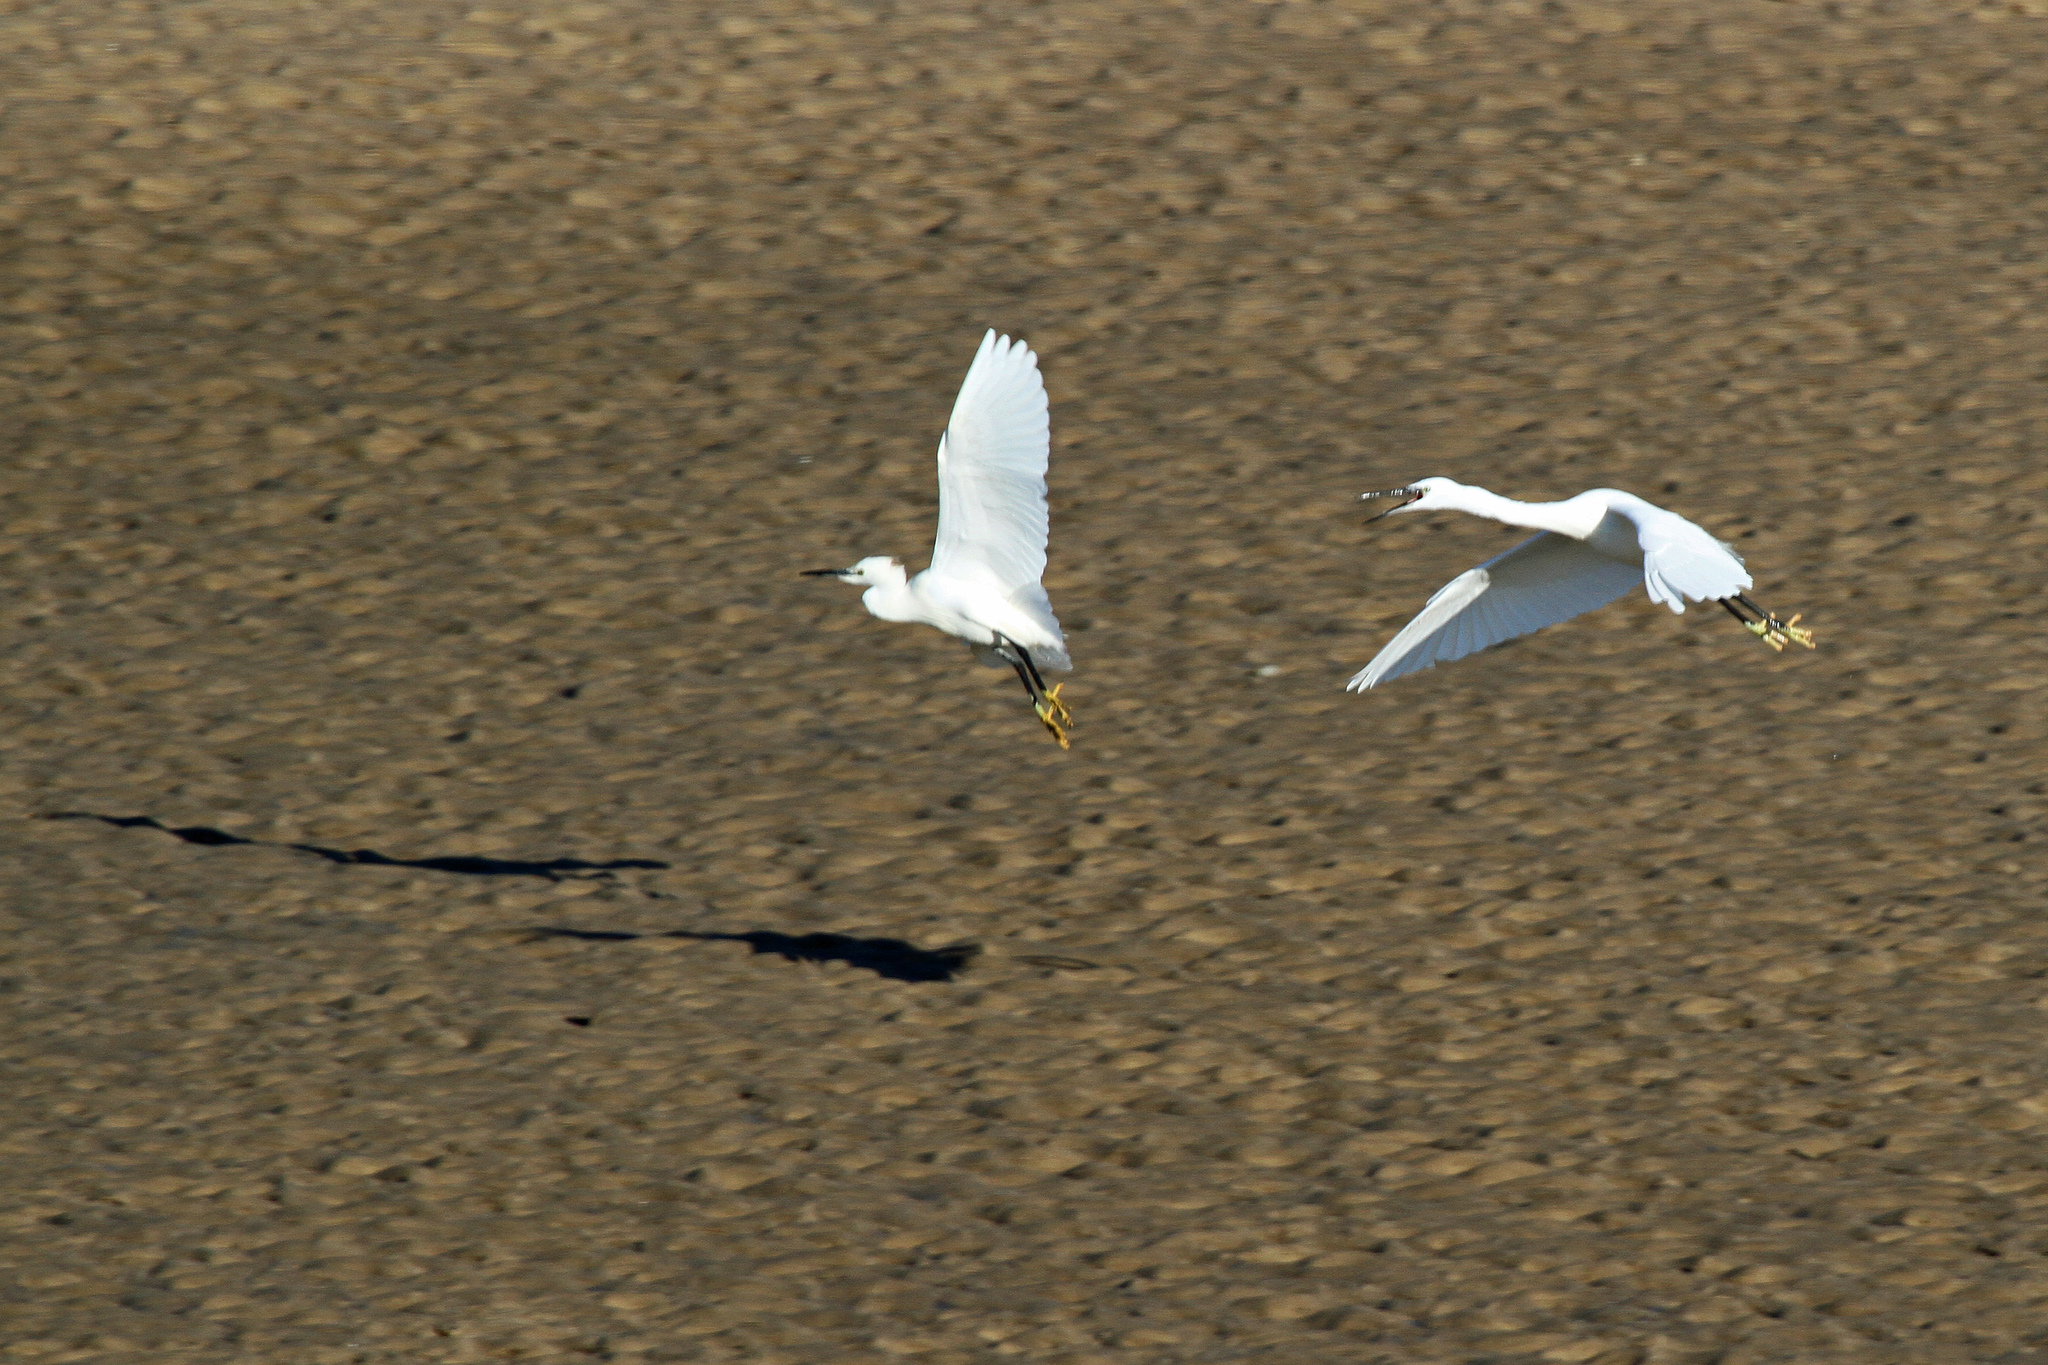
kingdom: Animalia
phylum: Chordata
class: Aves
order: Pelecaniformes
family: Ardeidae
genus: Egretta
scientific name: Egretta garzetta
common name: Little egret
